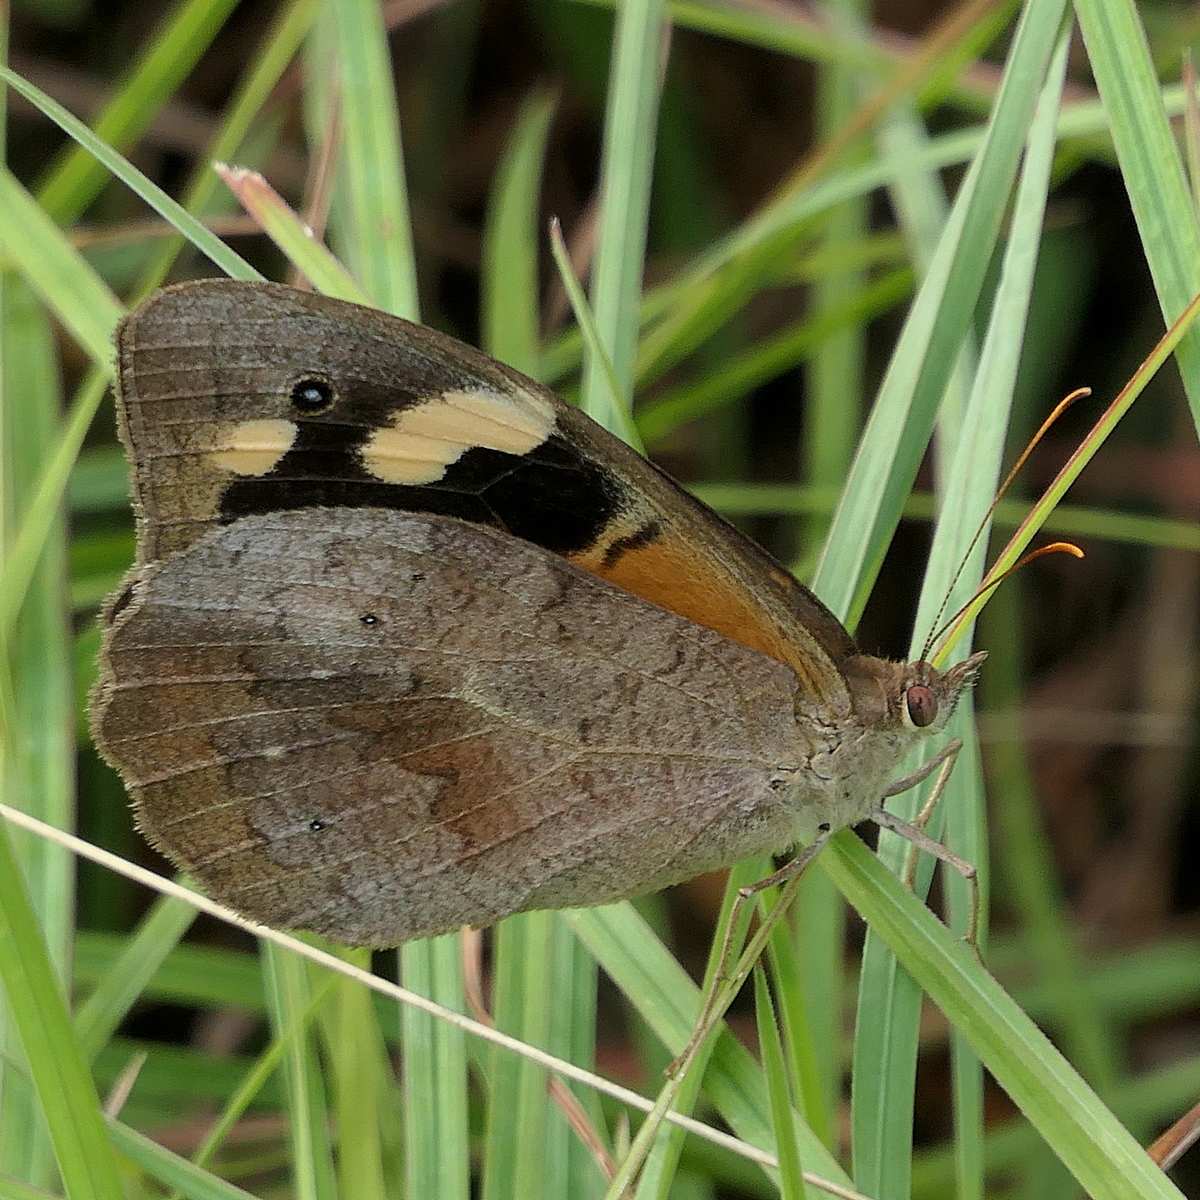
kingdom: Animalia
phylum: Arthropoda
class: Insecta
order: Lepidoptera
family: Nymphalidae
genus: Heteronympha
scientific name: Heteronympha merope
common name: Common brown
